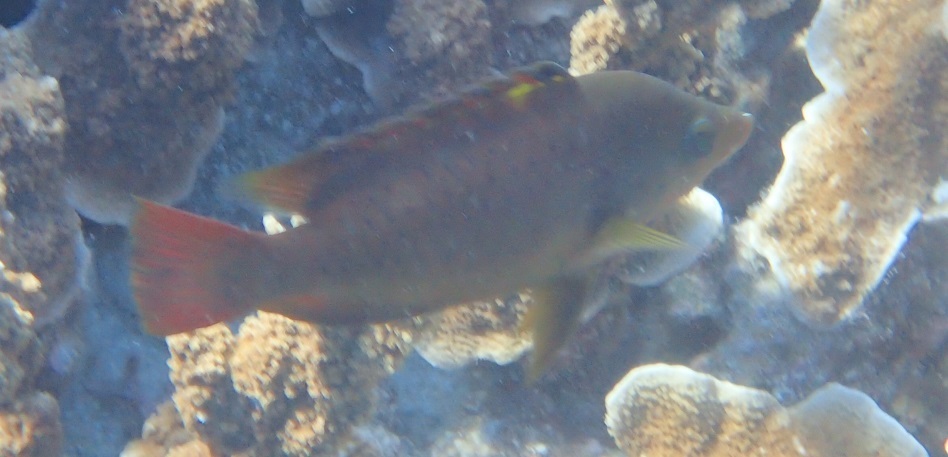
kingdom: Animalia
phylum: Chordata
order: Perciformes
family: Labridae
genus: Epibulus
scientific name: Epibulus brevis
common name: Dwarf slingjaw wrasse
